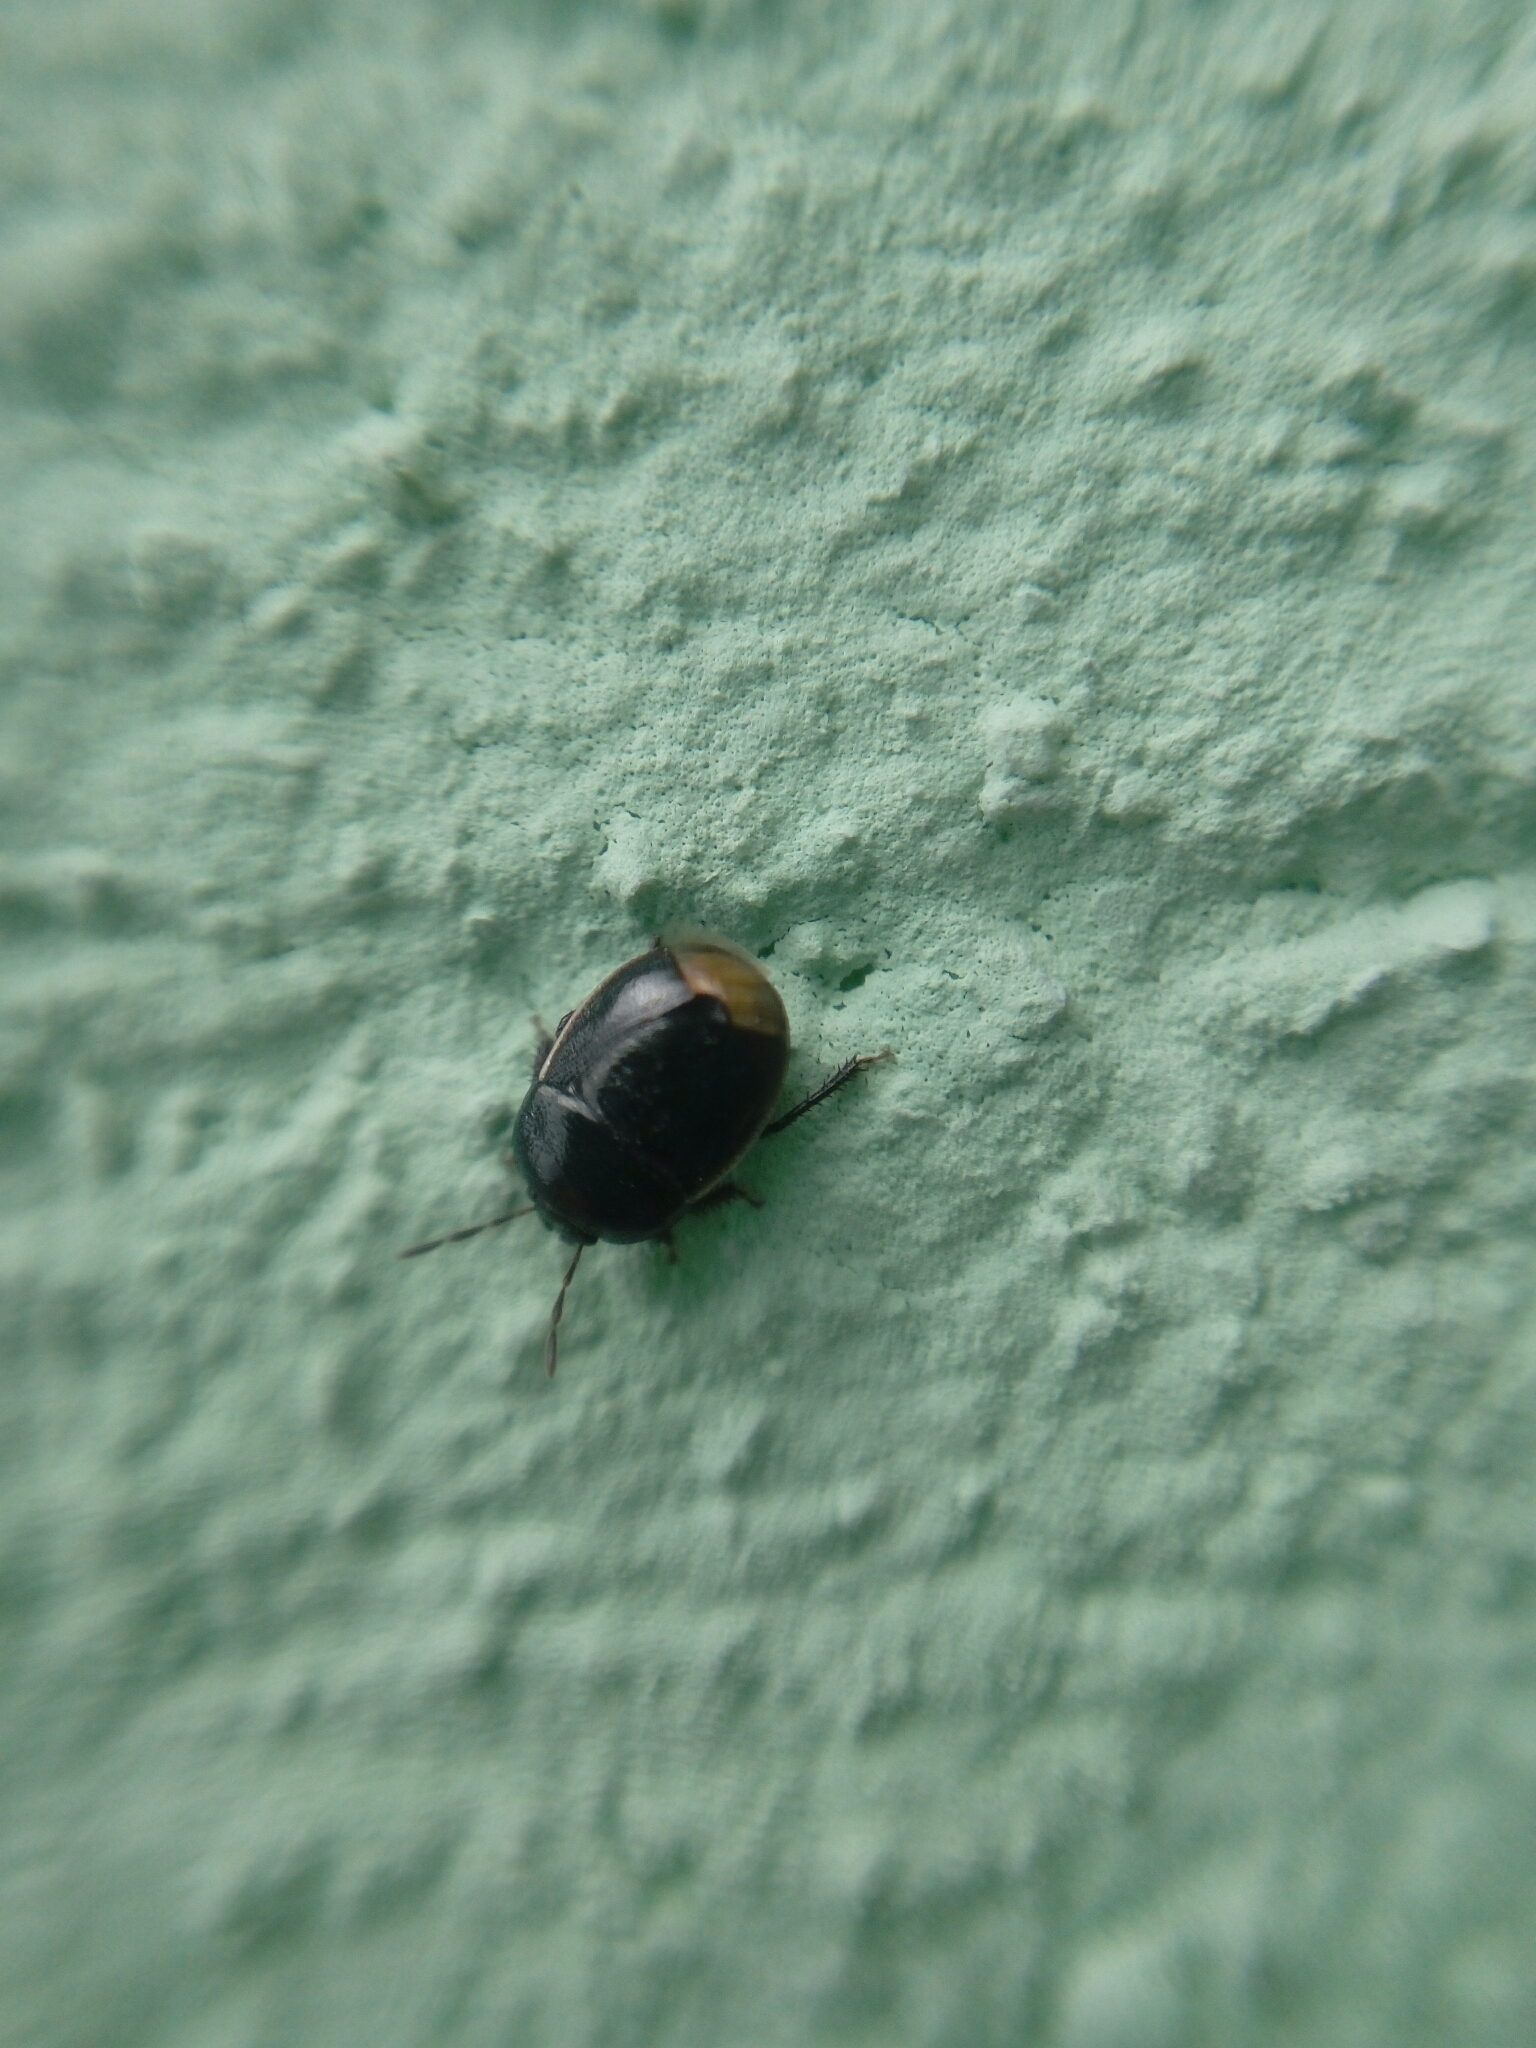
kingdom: Animalia
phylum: Arthropoda
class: Insecta
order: Hemiptera
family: Cydnidae
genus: Legnotus
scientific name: Legnotus limbosus
